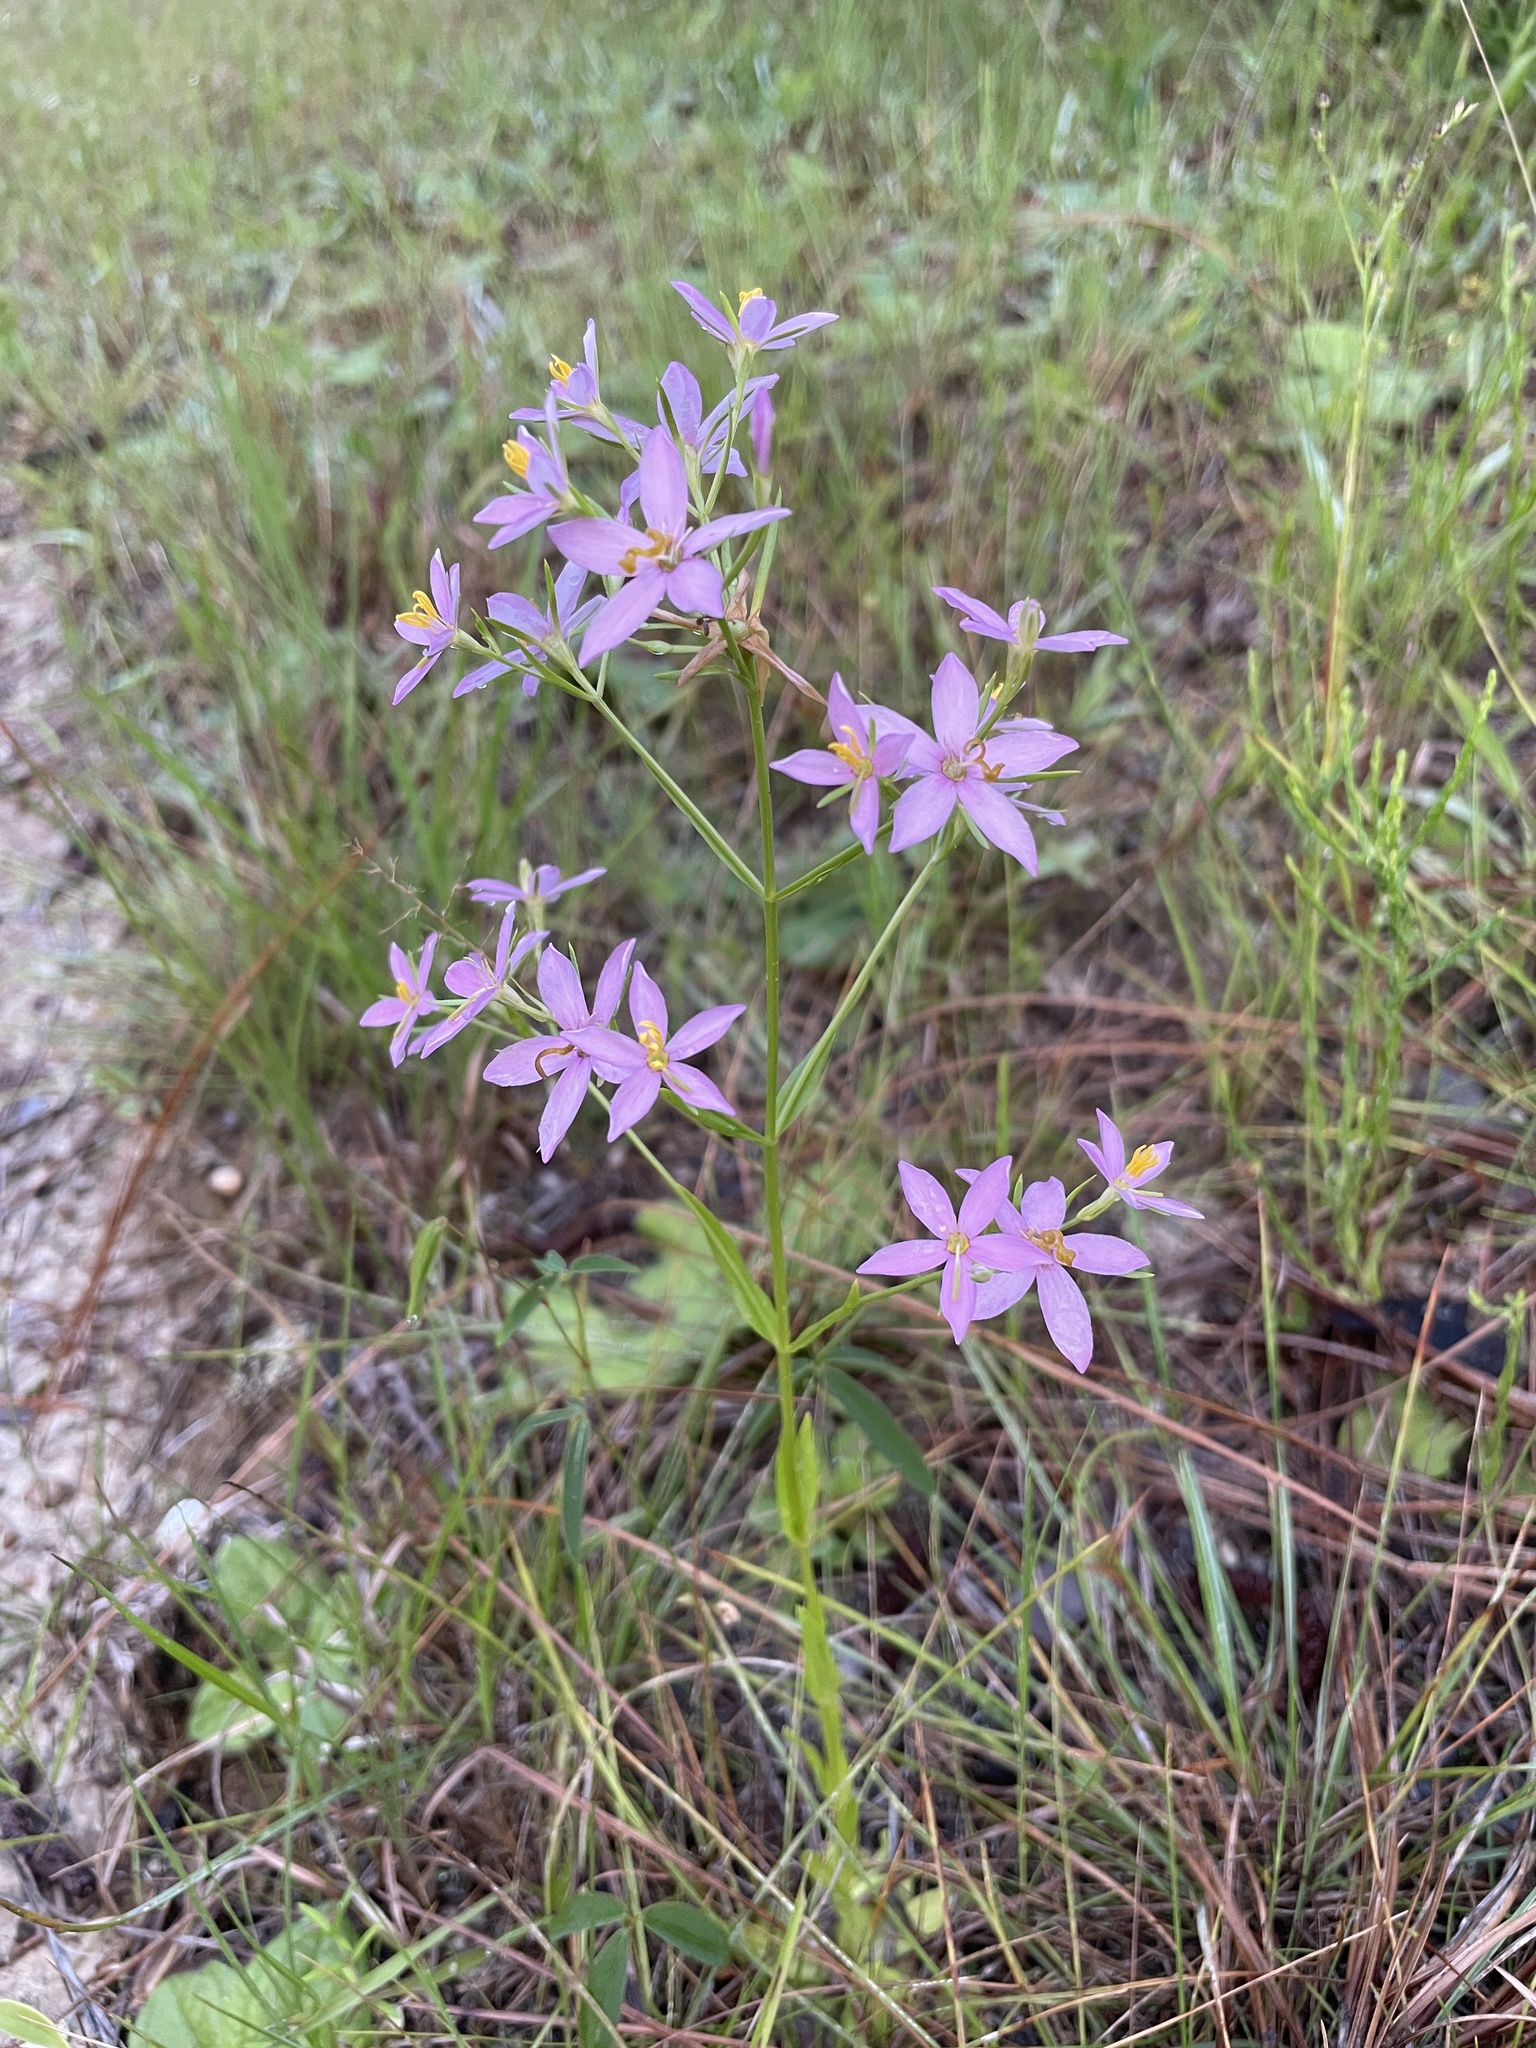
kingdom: Plantae
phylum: Tracheophyta
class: Magnoliopsida
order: Gentianales
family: Gentianaceae
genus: Sabatia
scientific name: Sabatia brachiata
